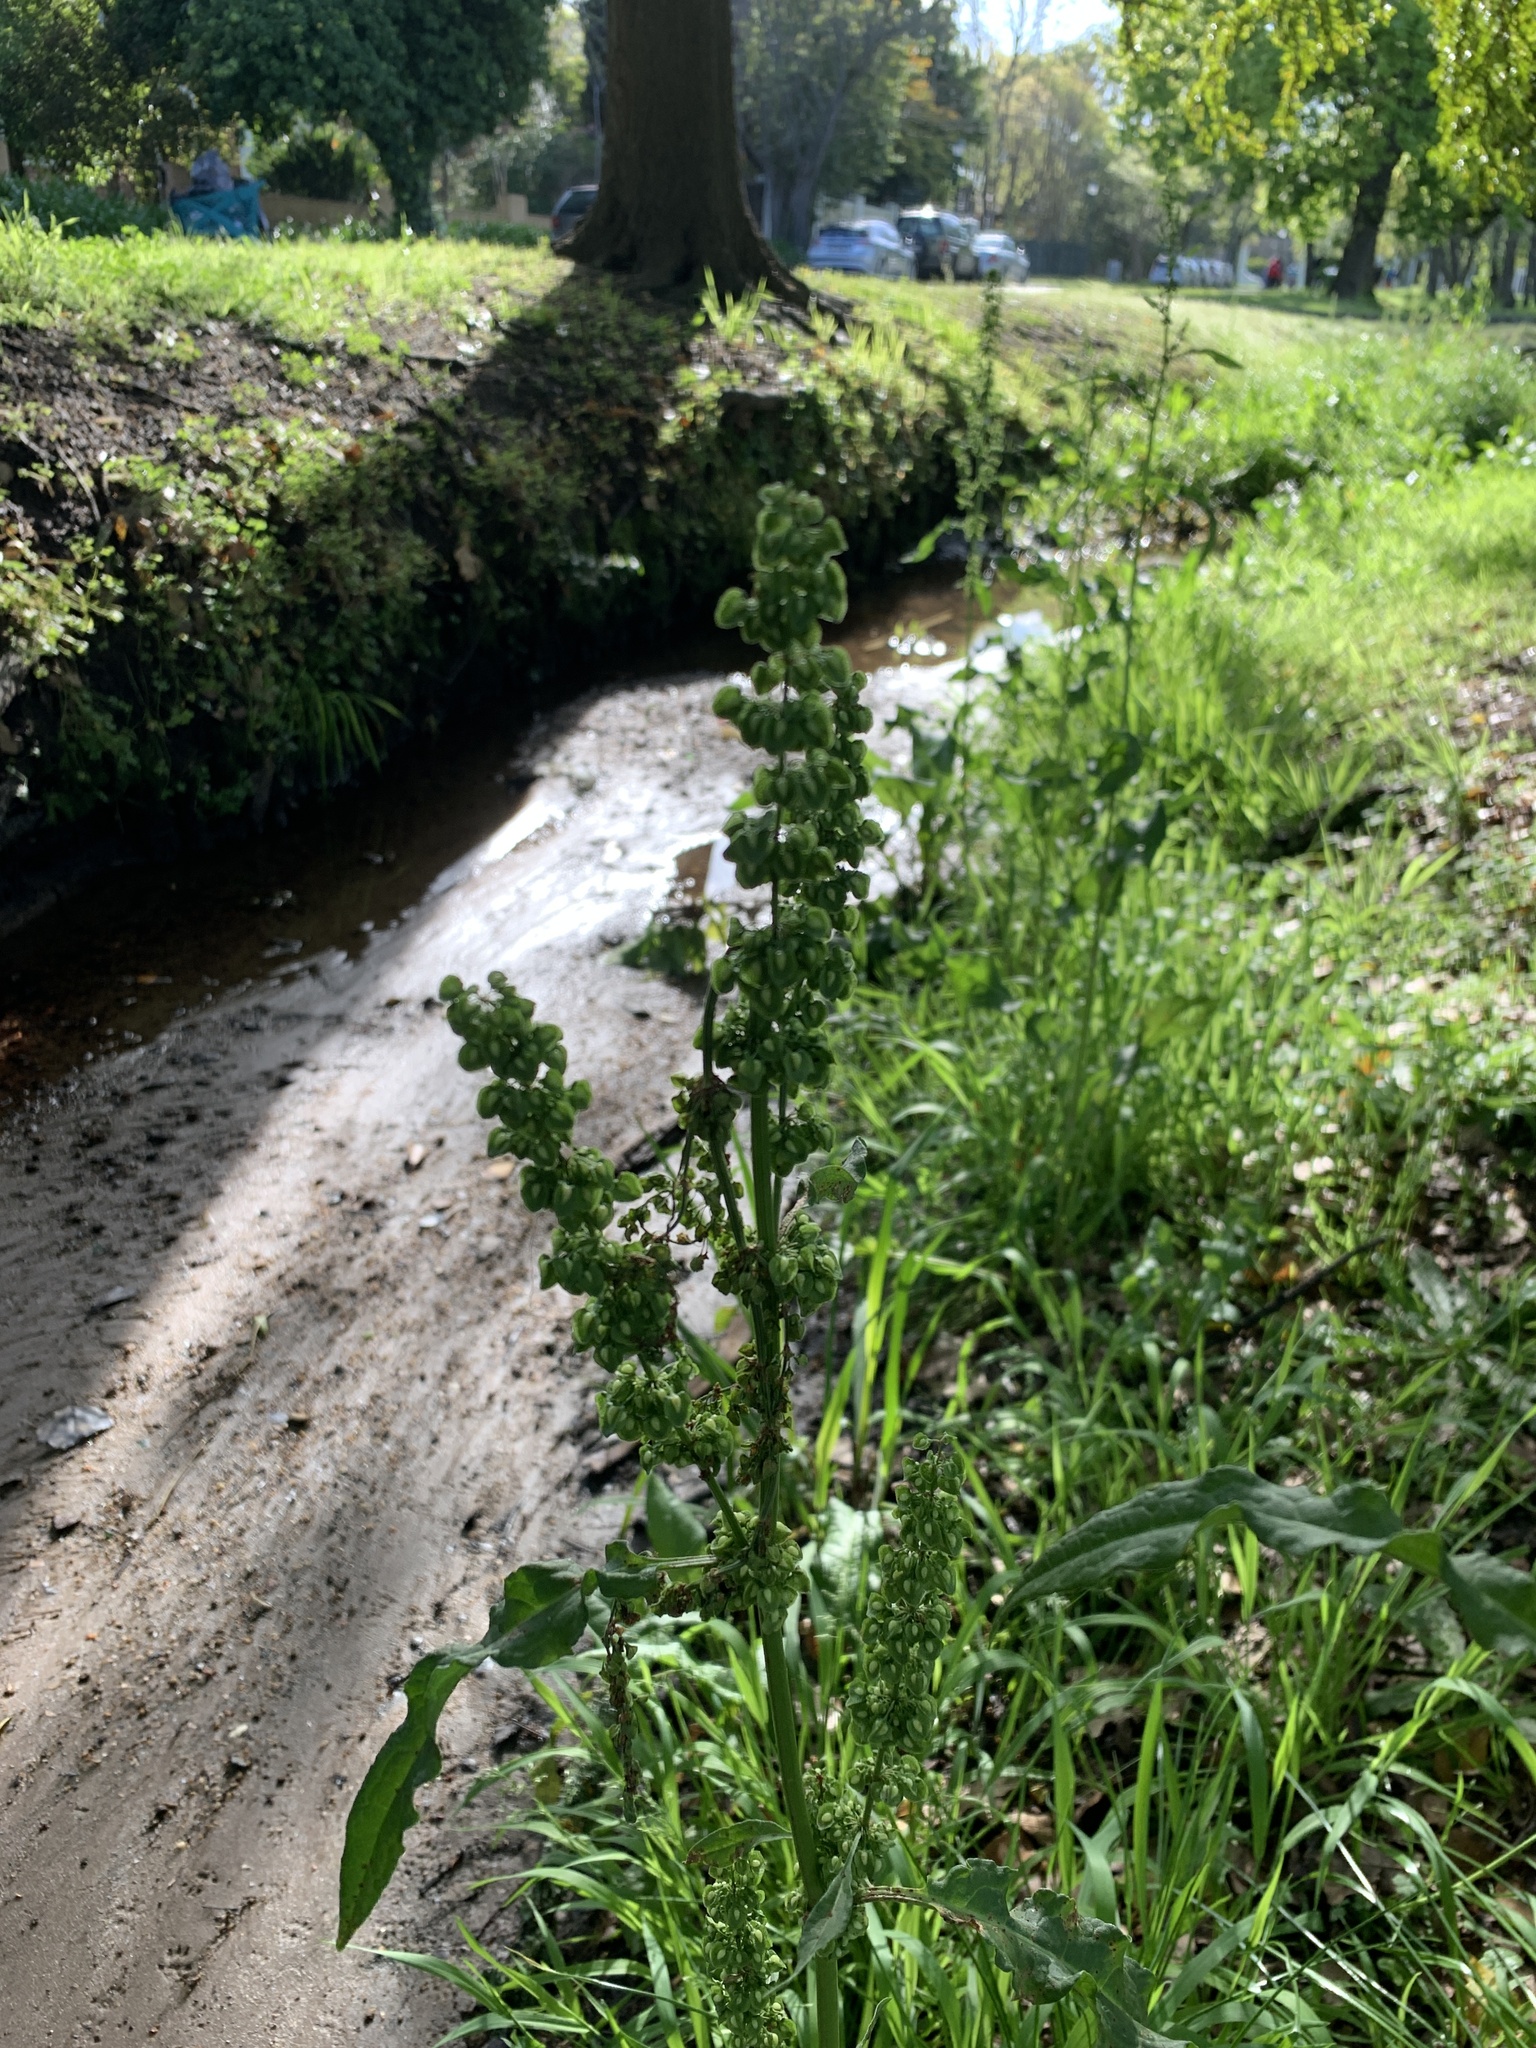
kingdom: Plantae
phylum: Tracheophyta
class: Magnoliopsida
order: Caryophyllales
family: Polygonaceae
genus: Rumex
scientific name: Rumex crispus
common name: Curled dock
